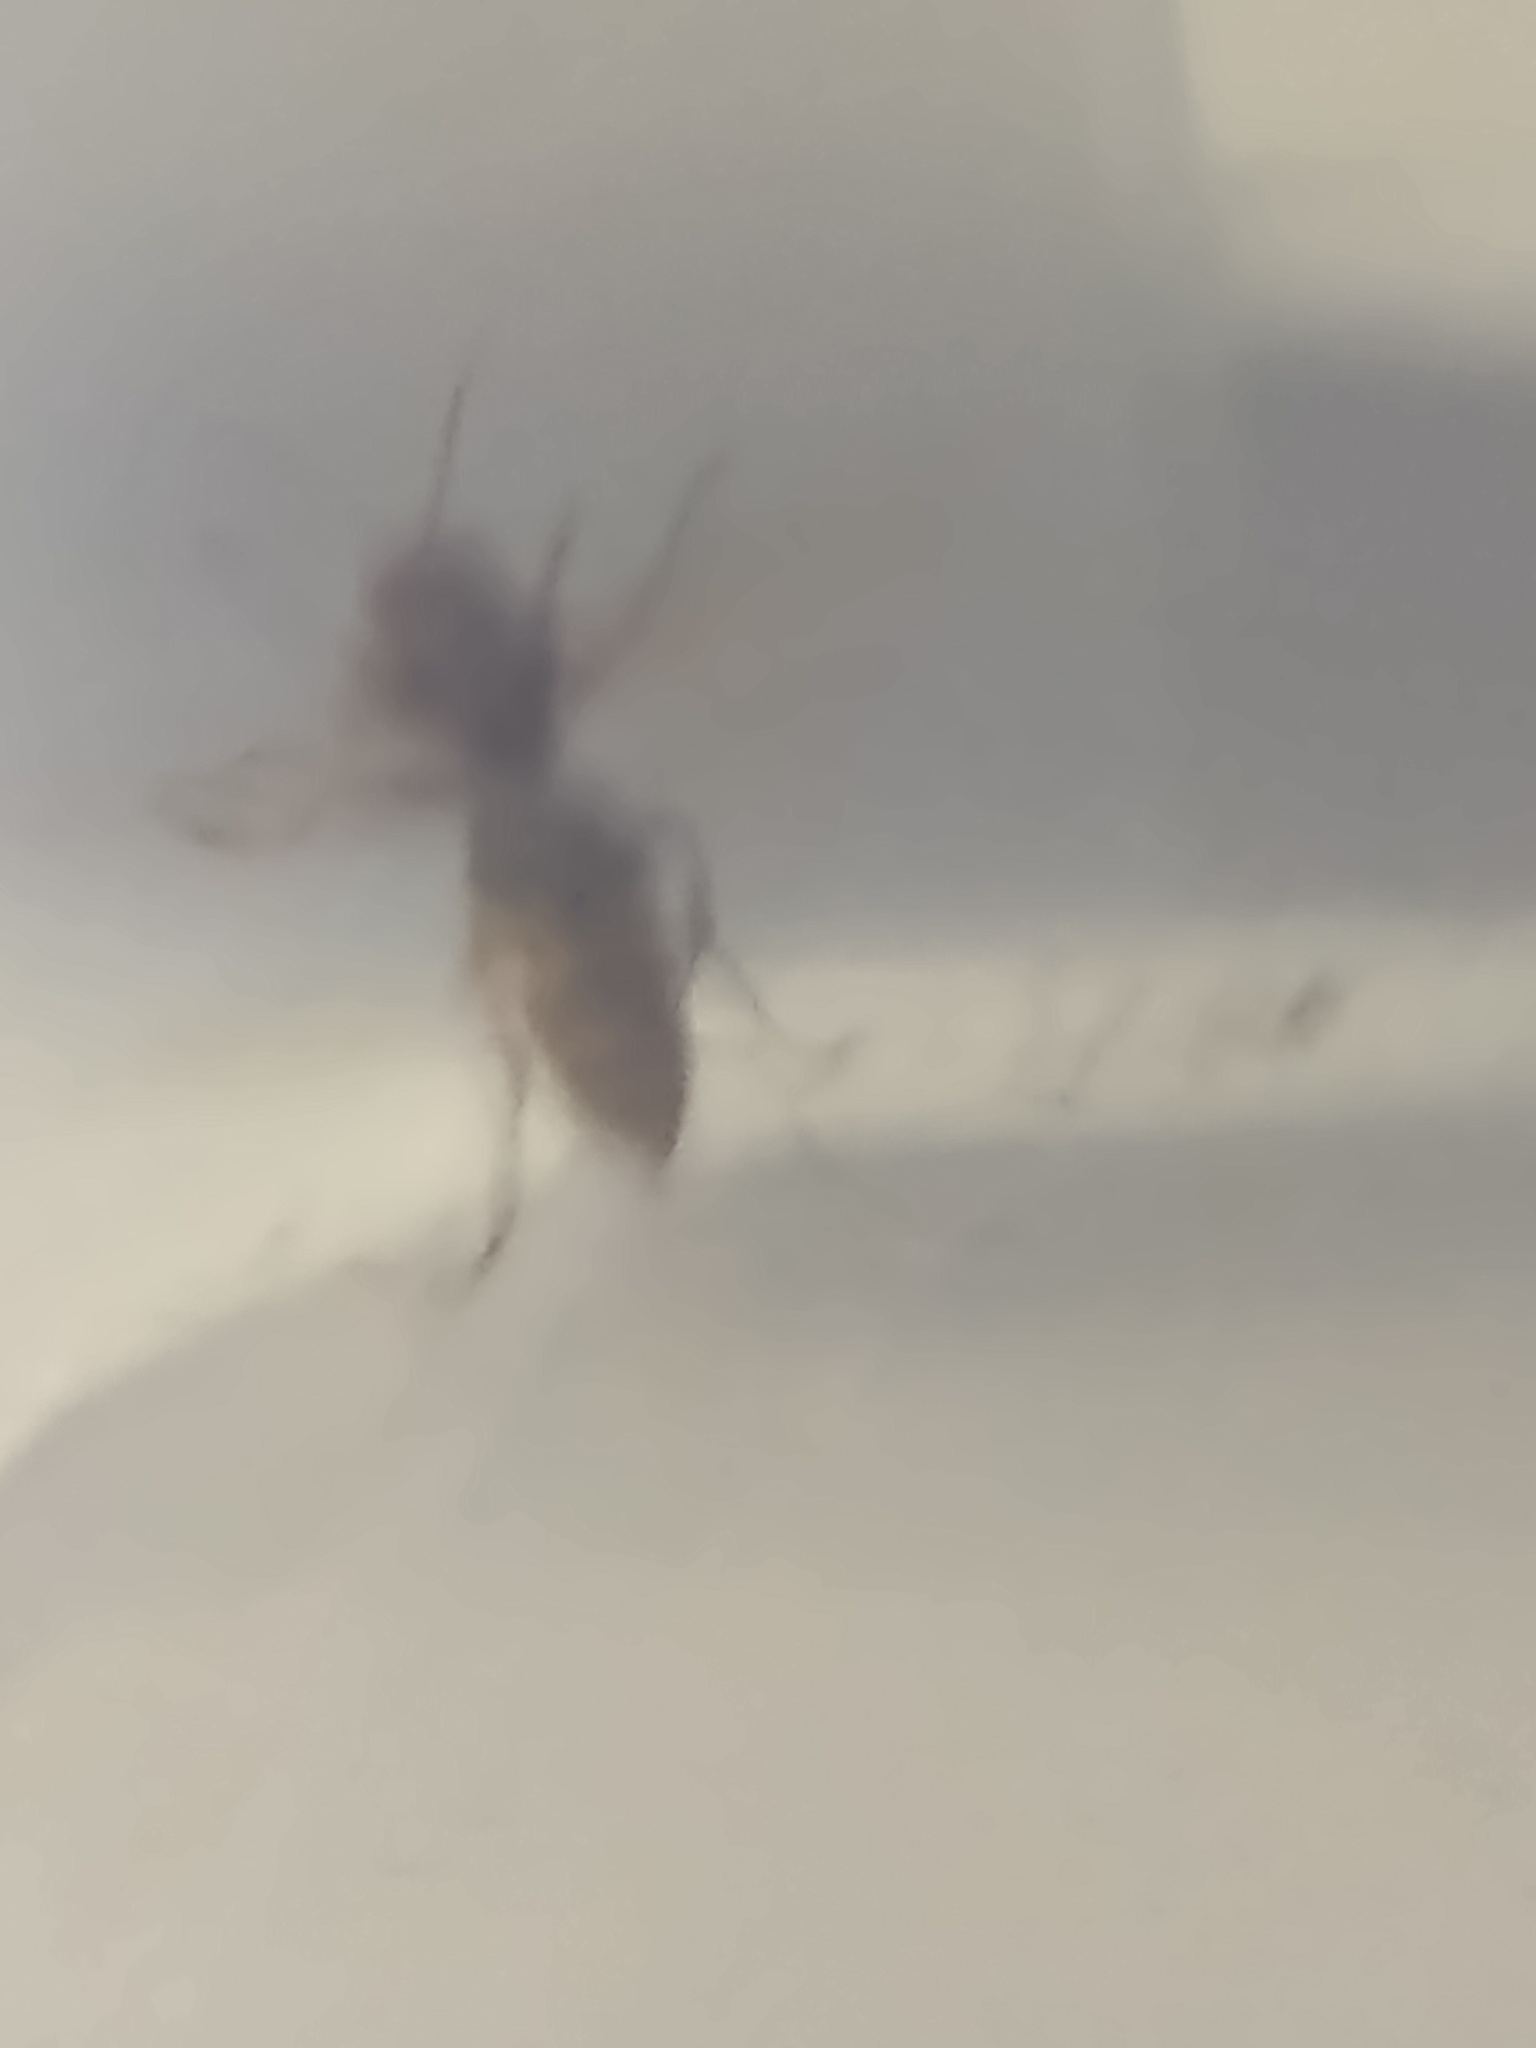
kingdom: Animalia
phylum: Arthropoda
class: Insecta
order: Hymenoptera
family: Vespidae
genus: Vespa
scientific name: Vespa crabro
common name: Hornet
